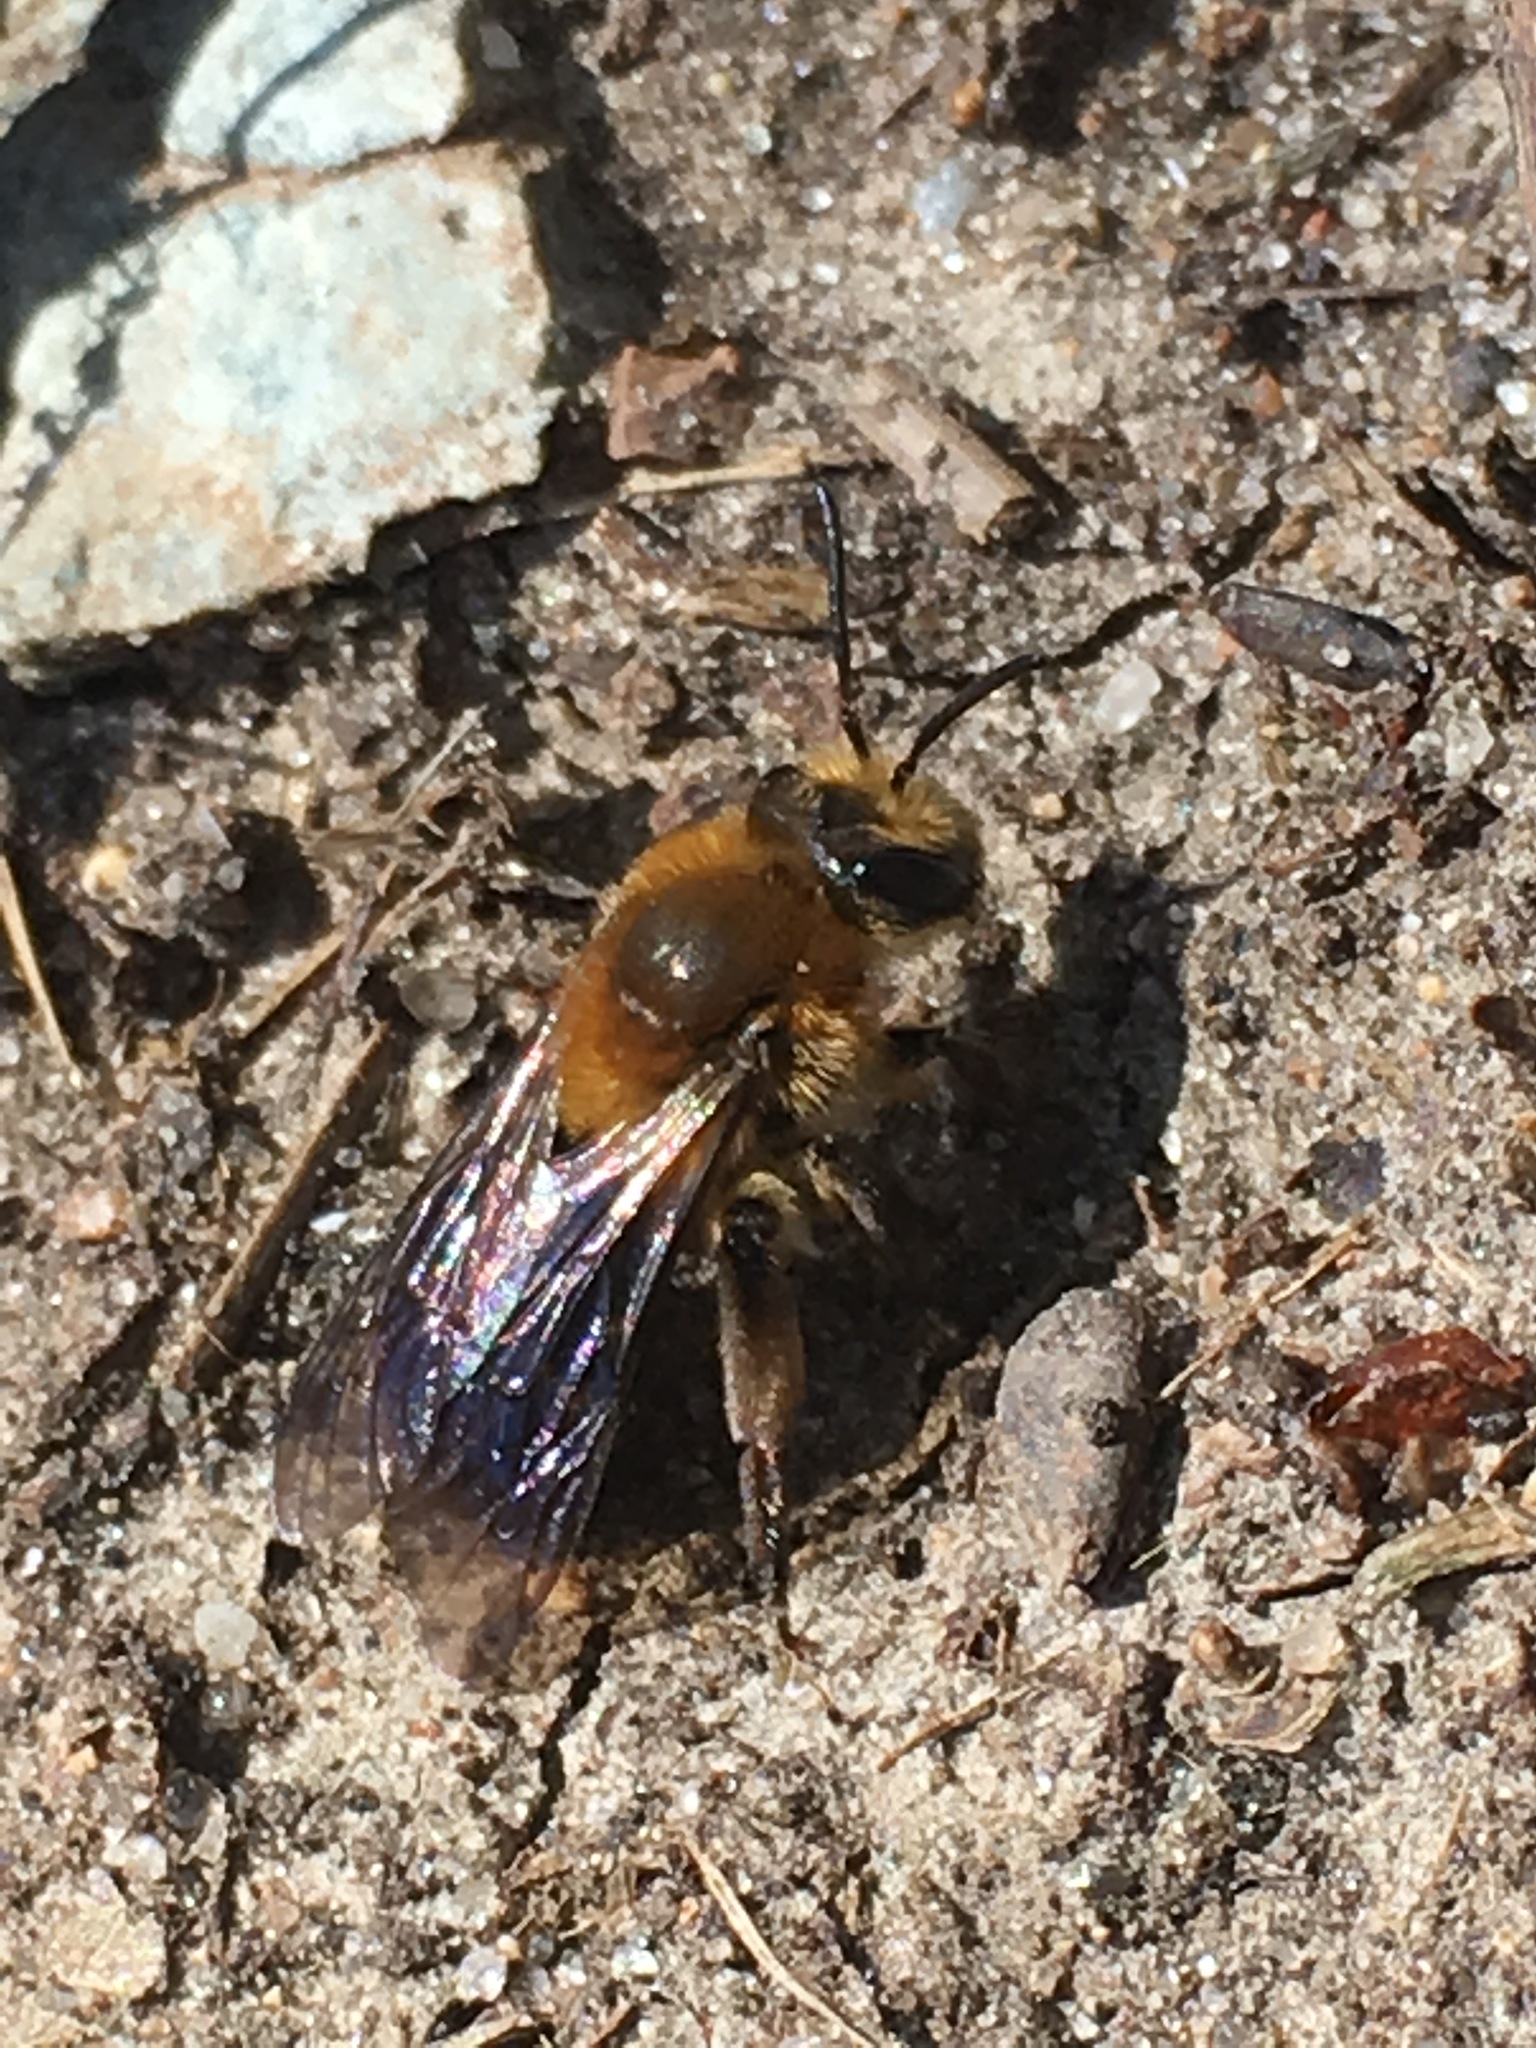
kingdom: Animalia
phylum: Arthropoda
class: Insecta
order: Hymenoptera
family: Andrenidae
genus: Andrena
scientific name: Andrena dunningi
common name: Dunning's miner
